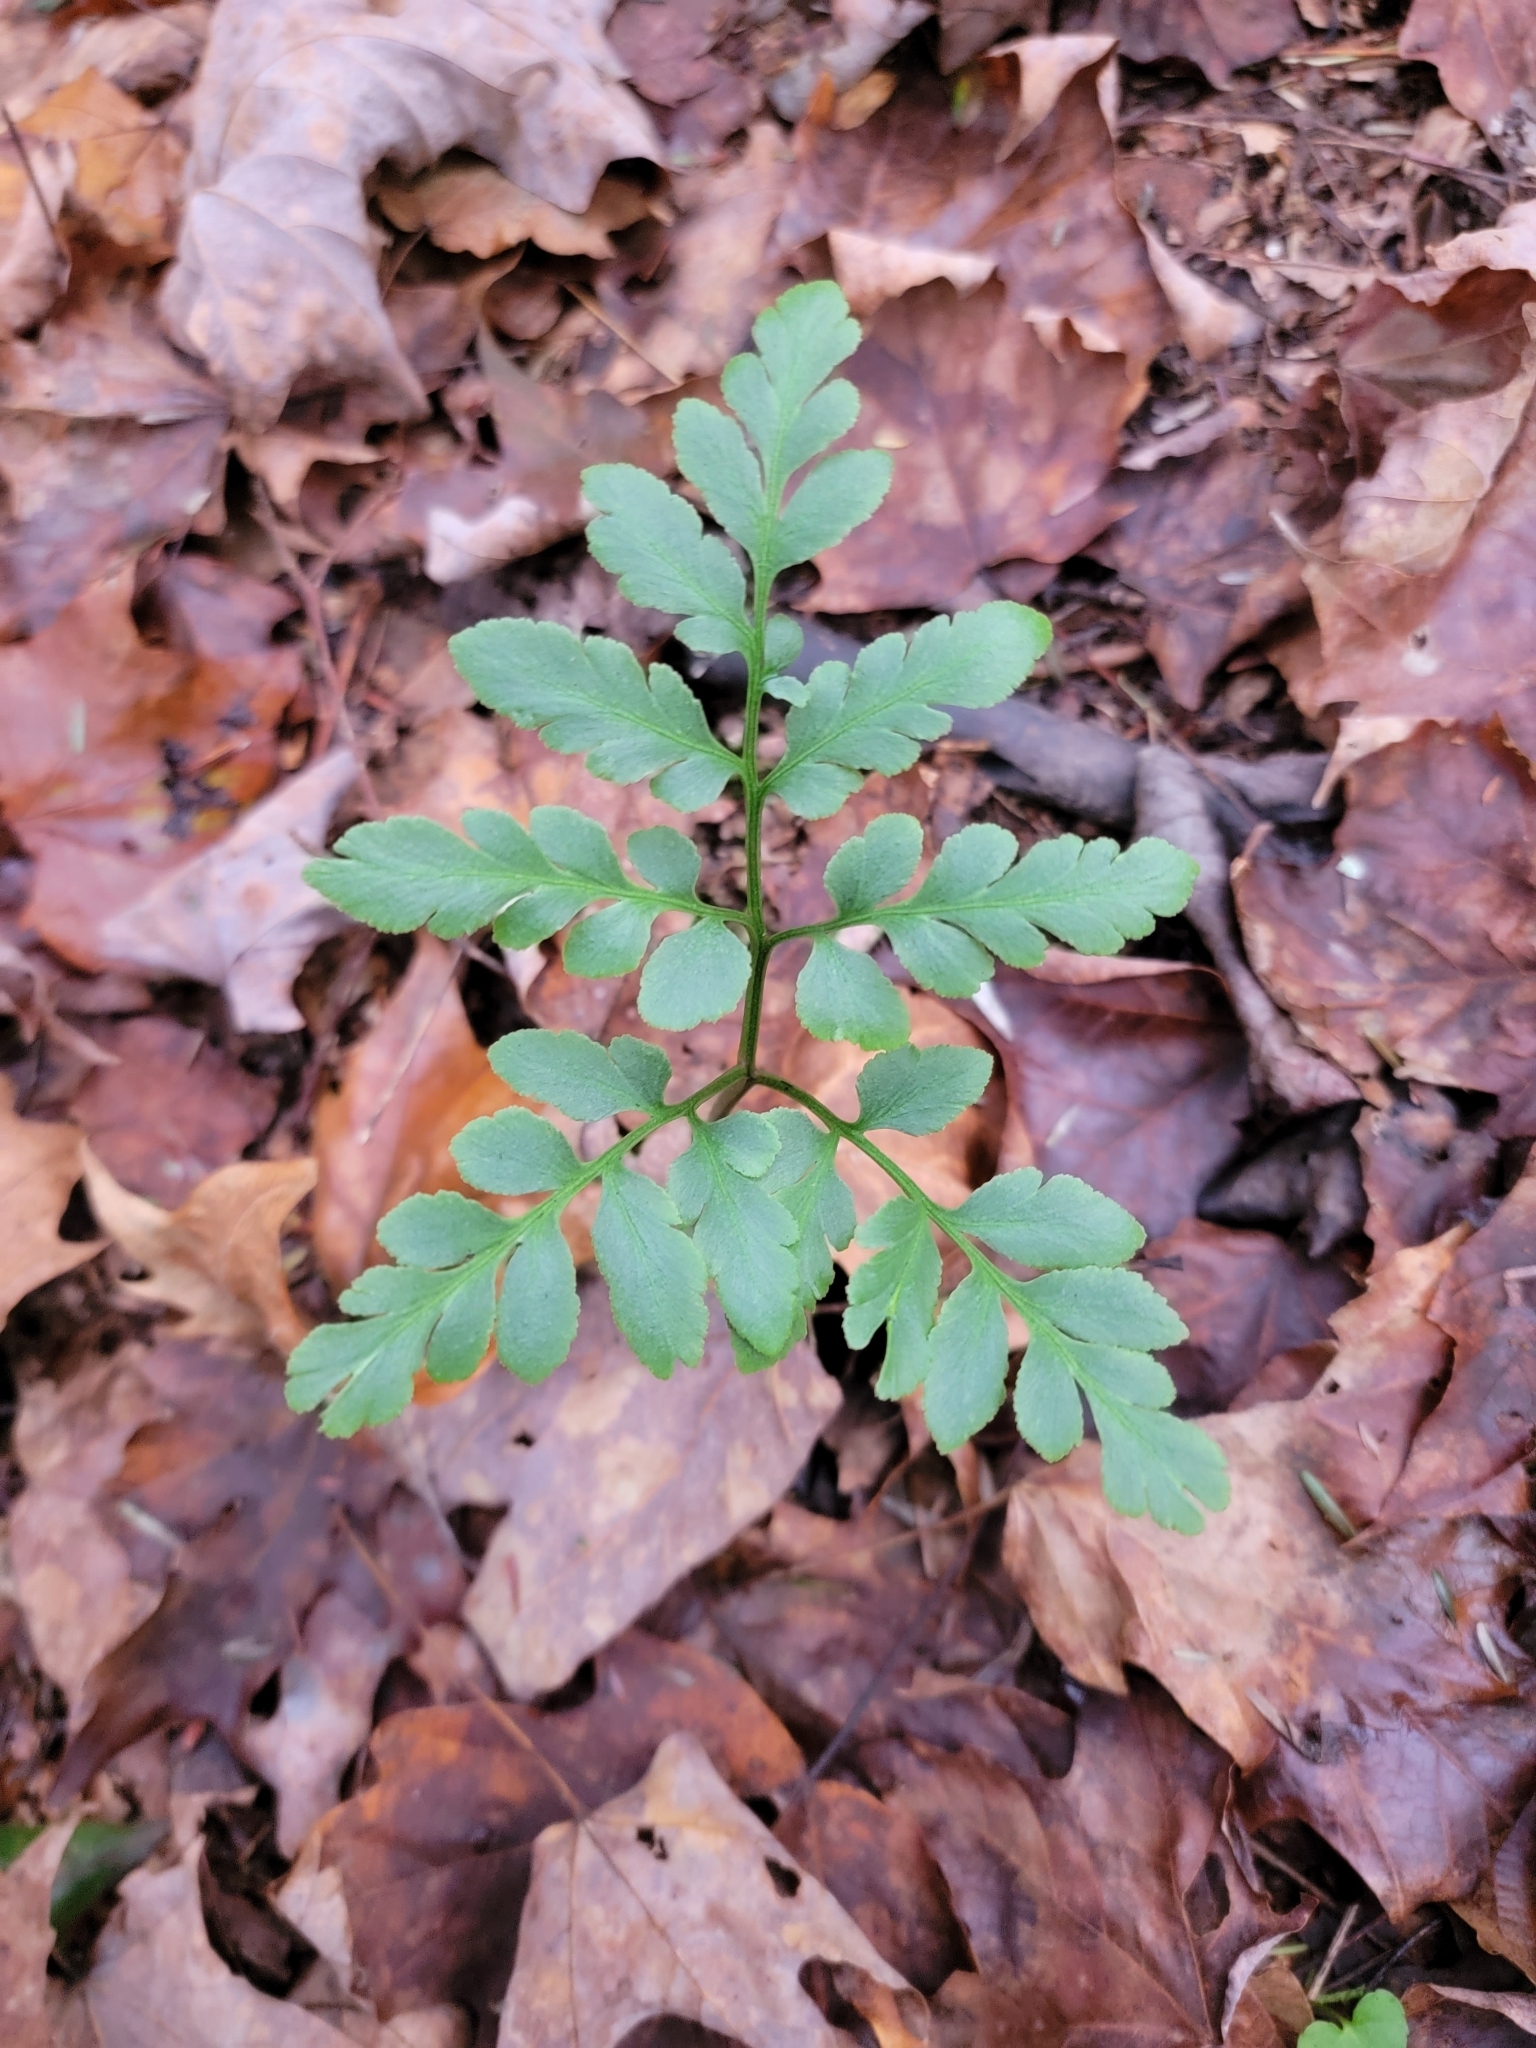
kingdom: Plantae
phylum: Tracheophyta
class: Polypodiopsida
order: Ophioglossales
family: Ophioglossaceae
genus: Sceptridium
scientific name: Sceptridium oneidense
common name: Blunt-lobed grapefern
